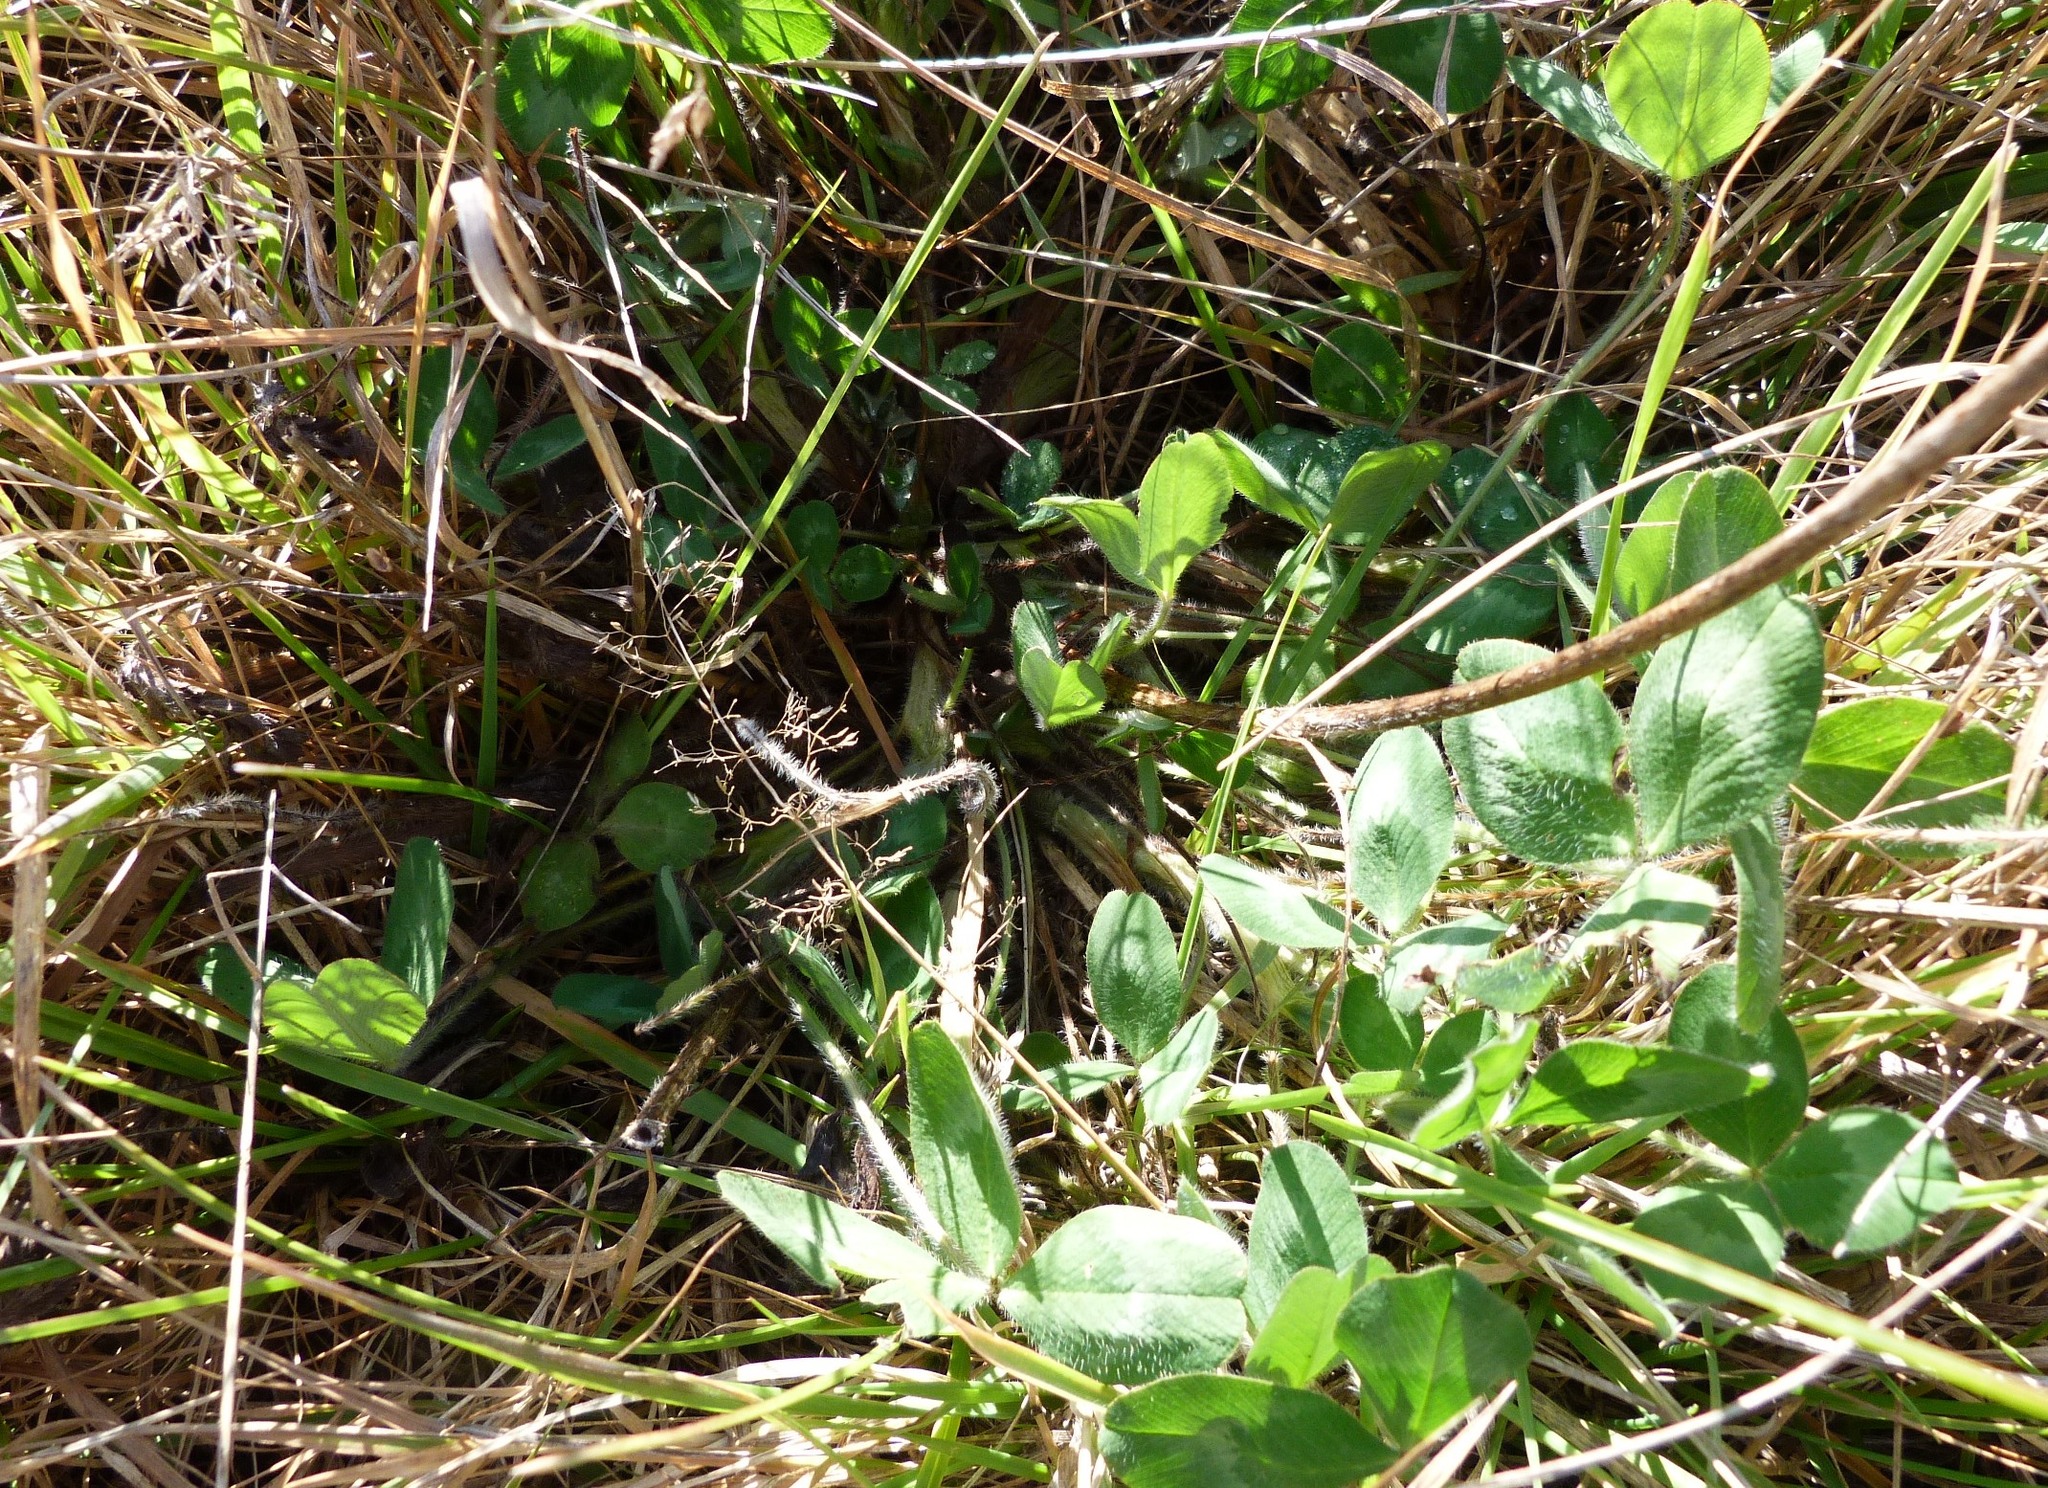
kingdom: Plantae
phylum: Tracheophyta
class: Magnoliopsida
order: Fabales
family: Fabaceae
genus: Trifolium
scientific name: Trifolium pratense
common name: Red clover
